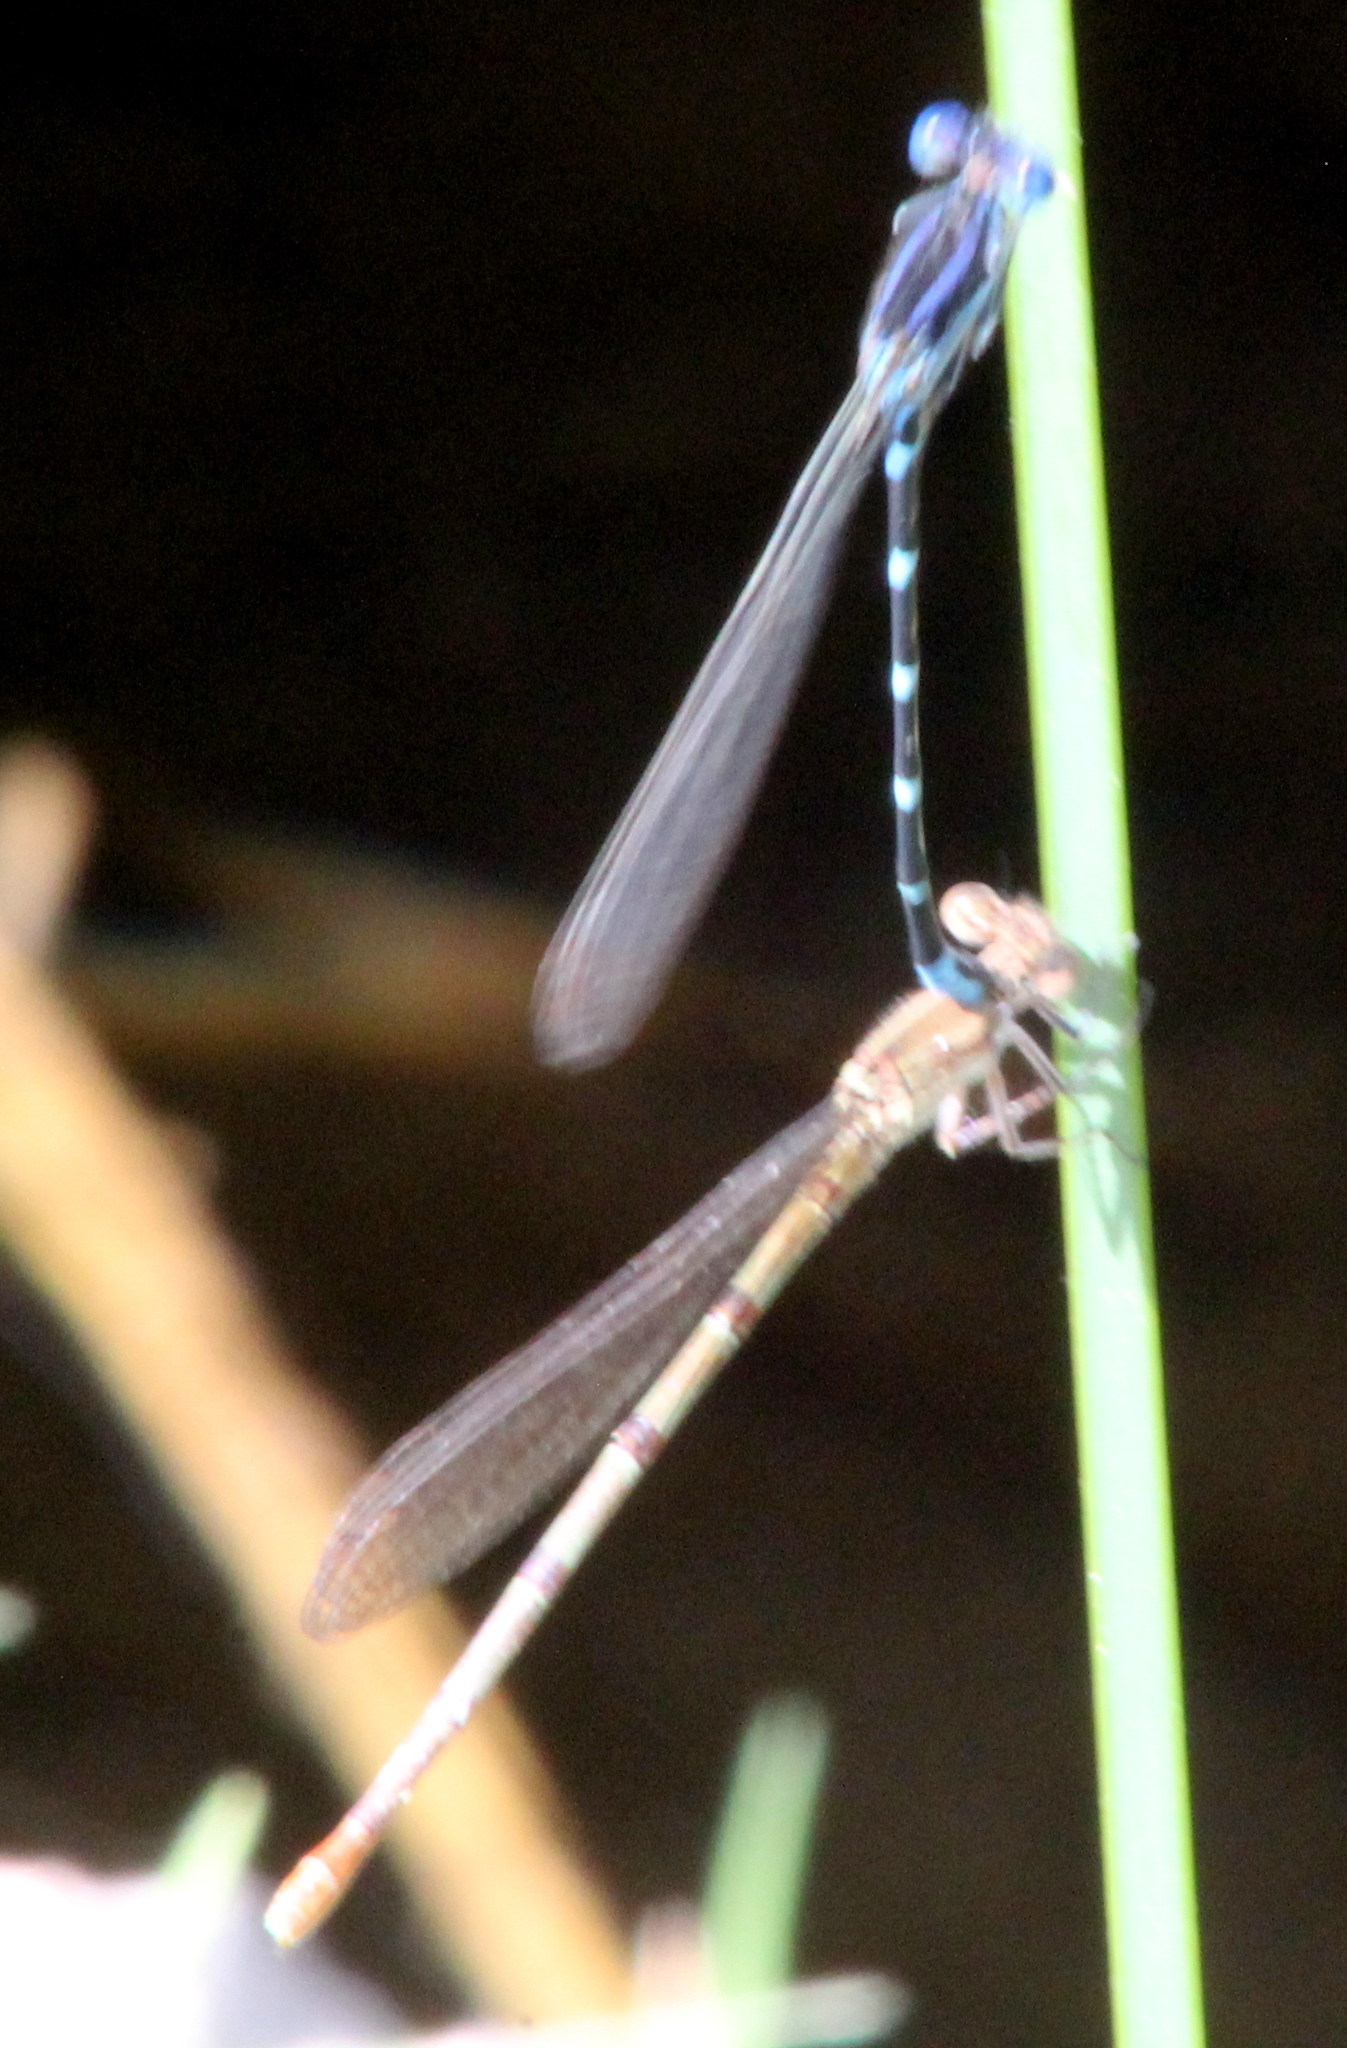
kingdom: Animalia
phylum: Arthropoda
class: Insecta
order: Odonata
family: Coenagrionidae
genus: Argia
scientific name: Argia sedula
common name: Blue-ringed dancer
